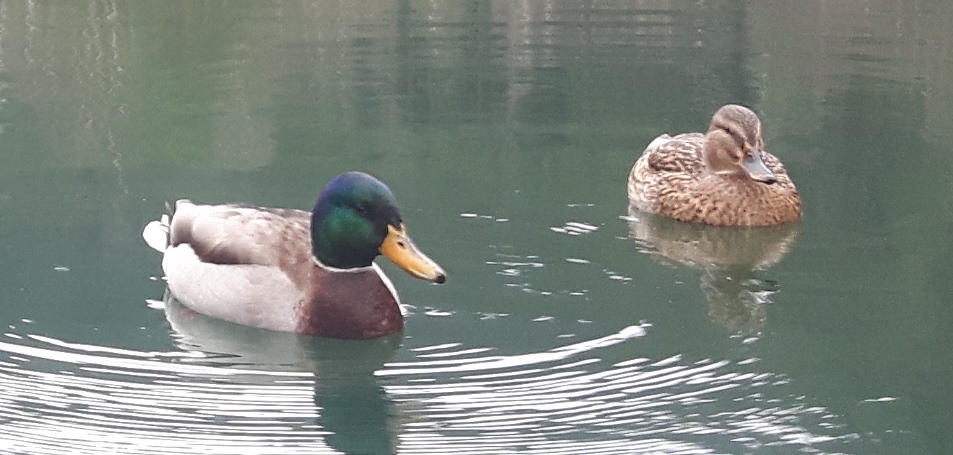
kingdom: Animalia
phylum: Chordata
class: Aves
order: Anseriformes
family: Anatidae
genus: Anas
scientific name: Anas platyrhynchos
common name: Mallard
